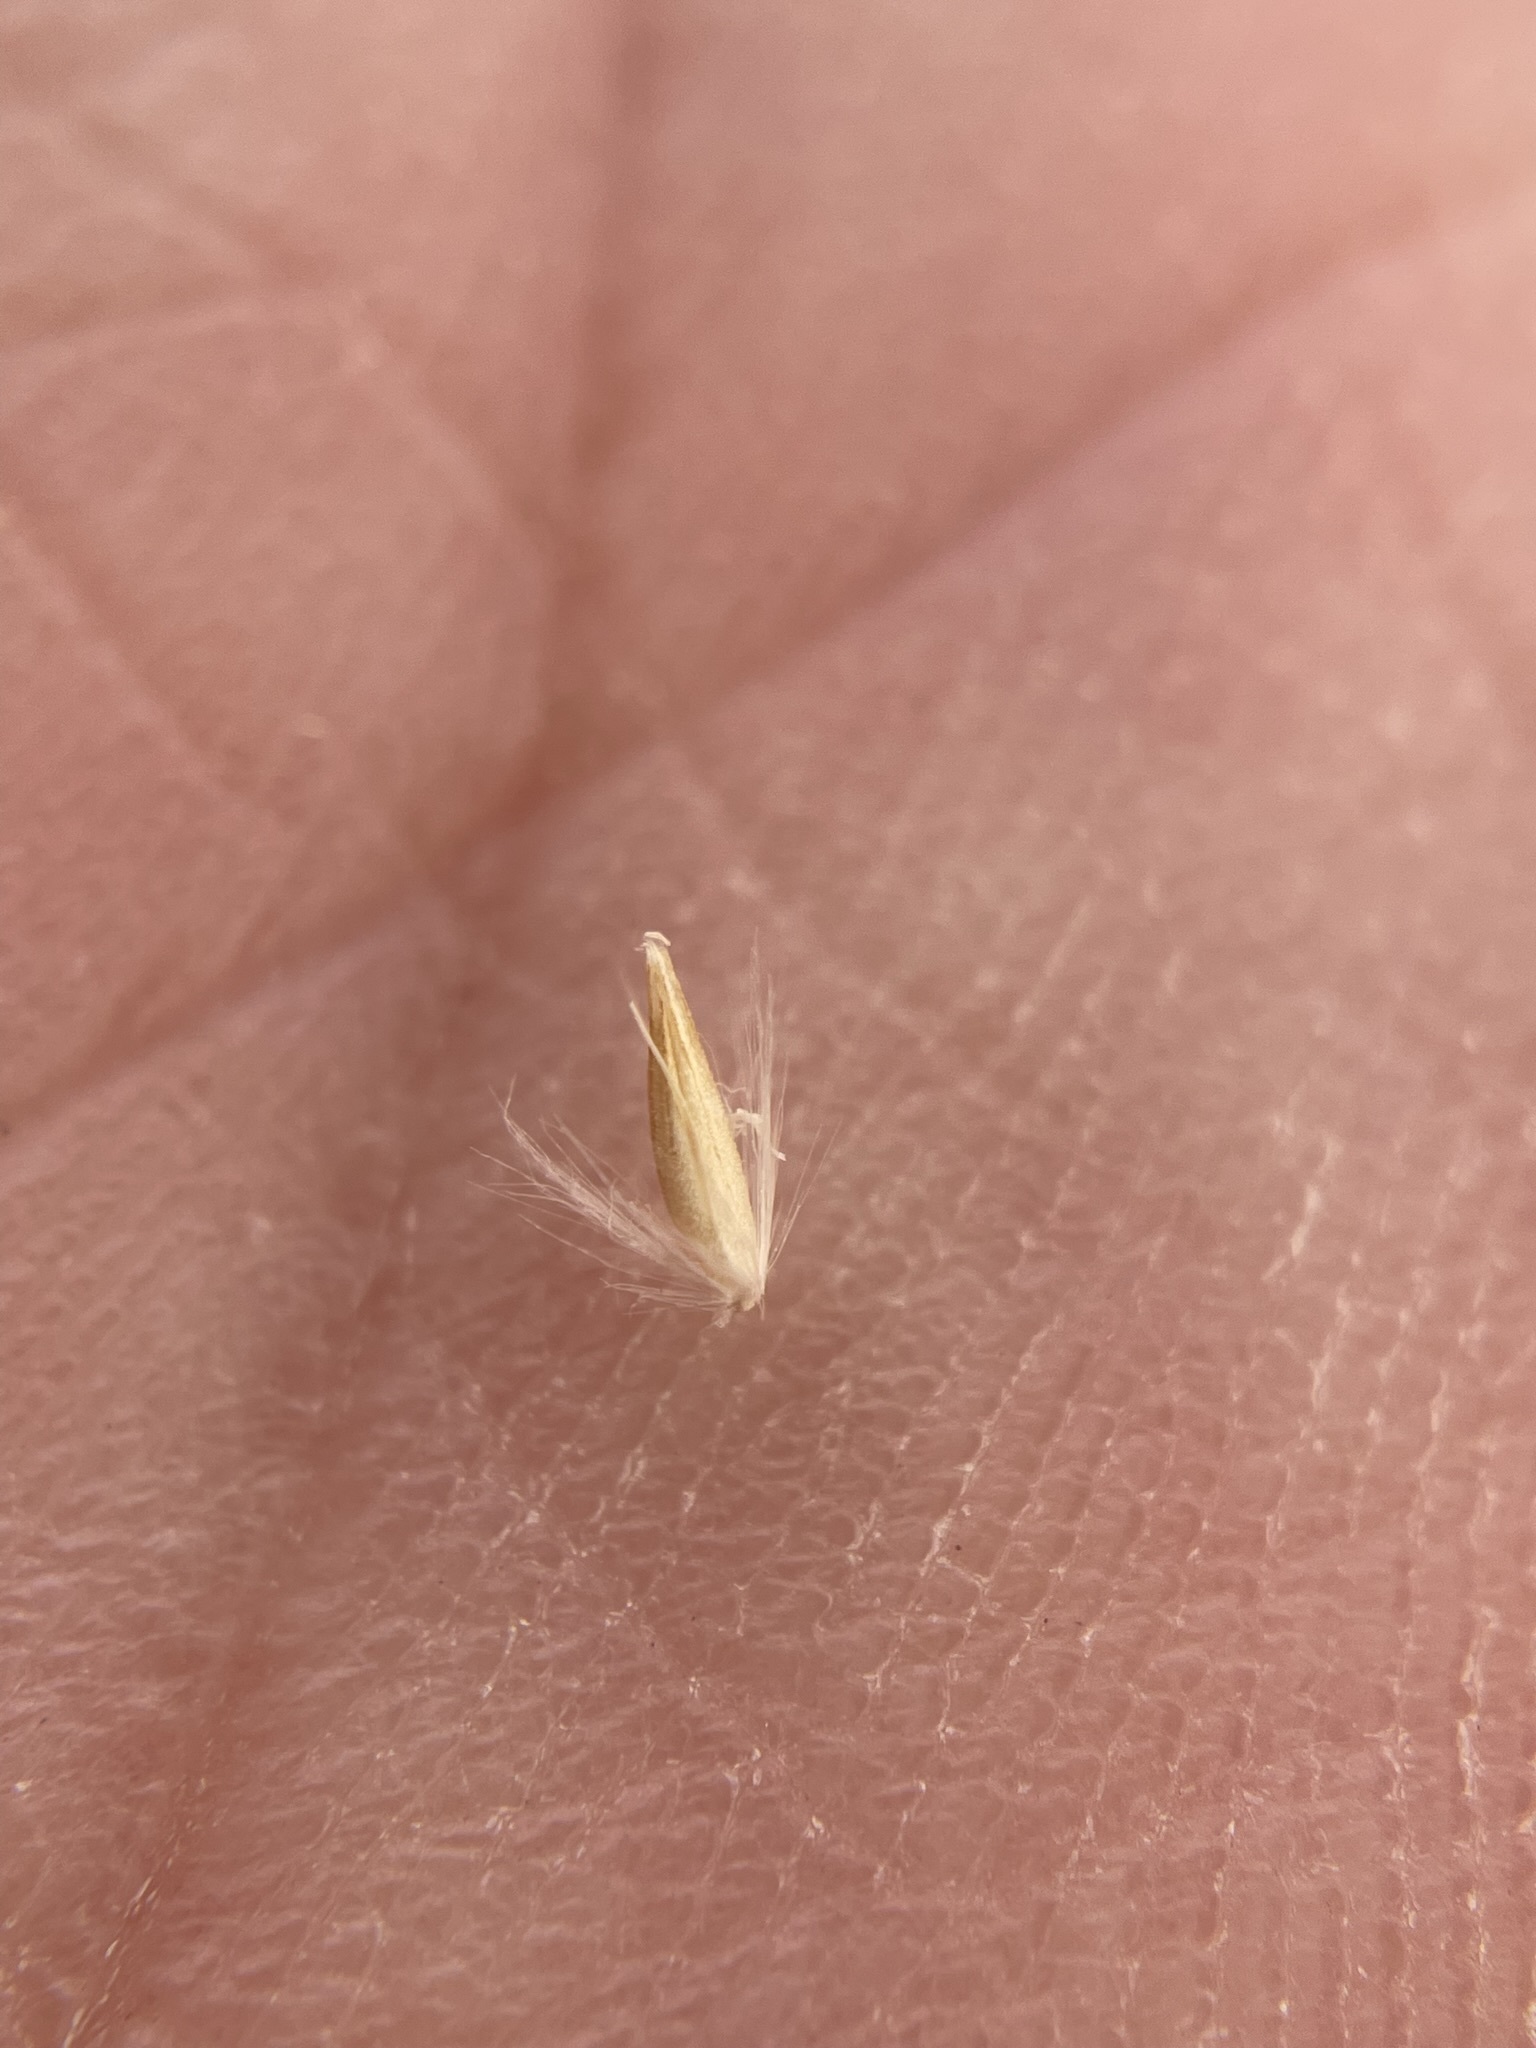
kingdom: Plantae
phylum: Tracheophyta
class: Liliopsida
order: Poales
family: Poaceae
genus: Calamagrostis
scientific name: Calamagrostis stricta
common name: Narrow small-reed
